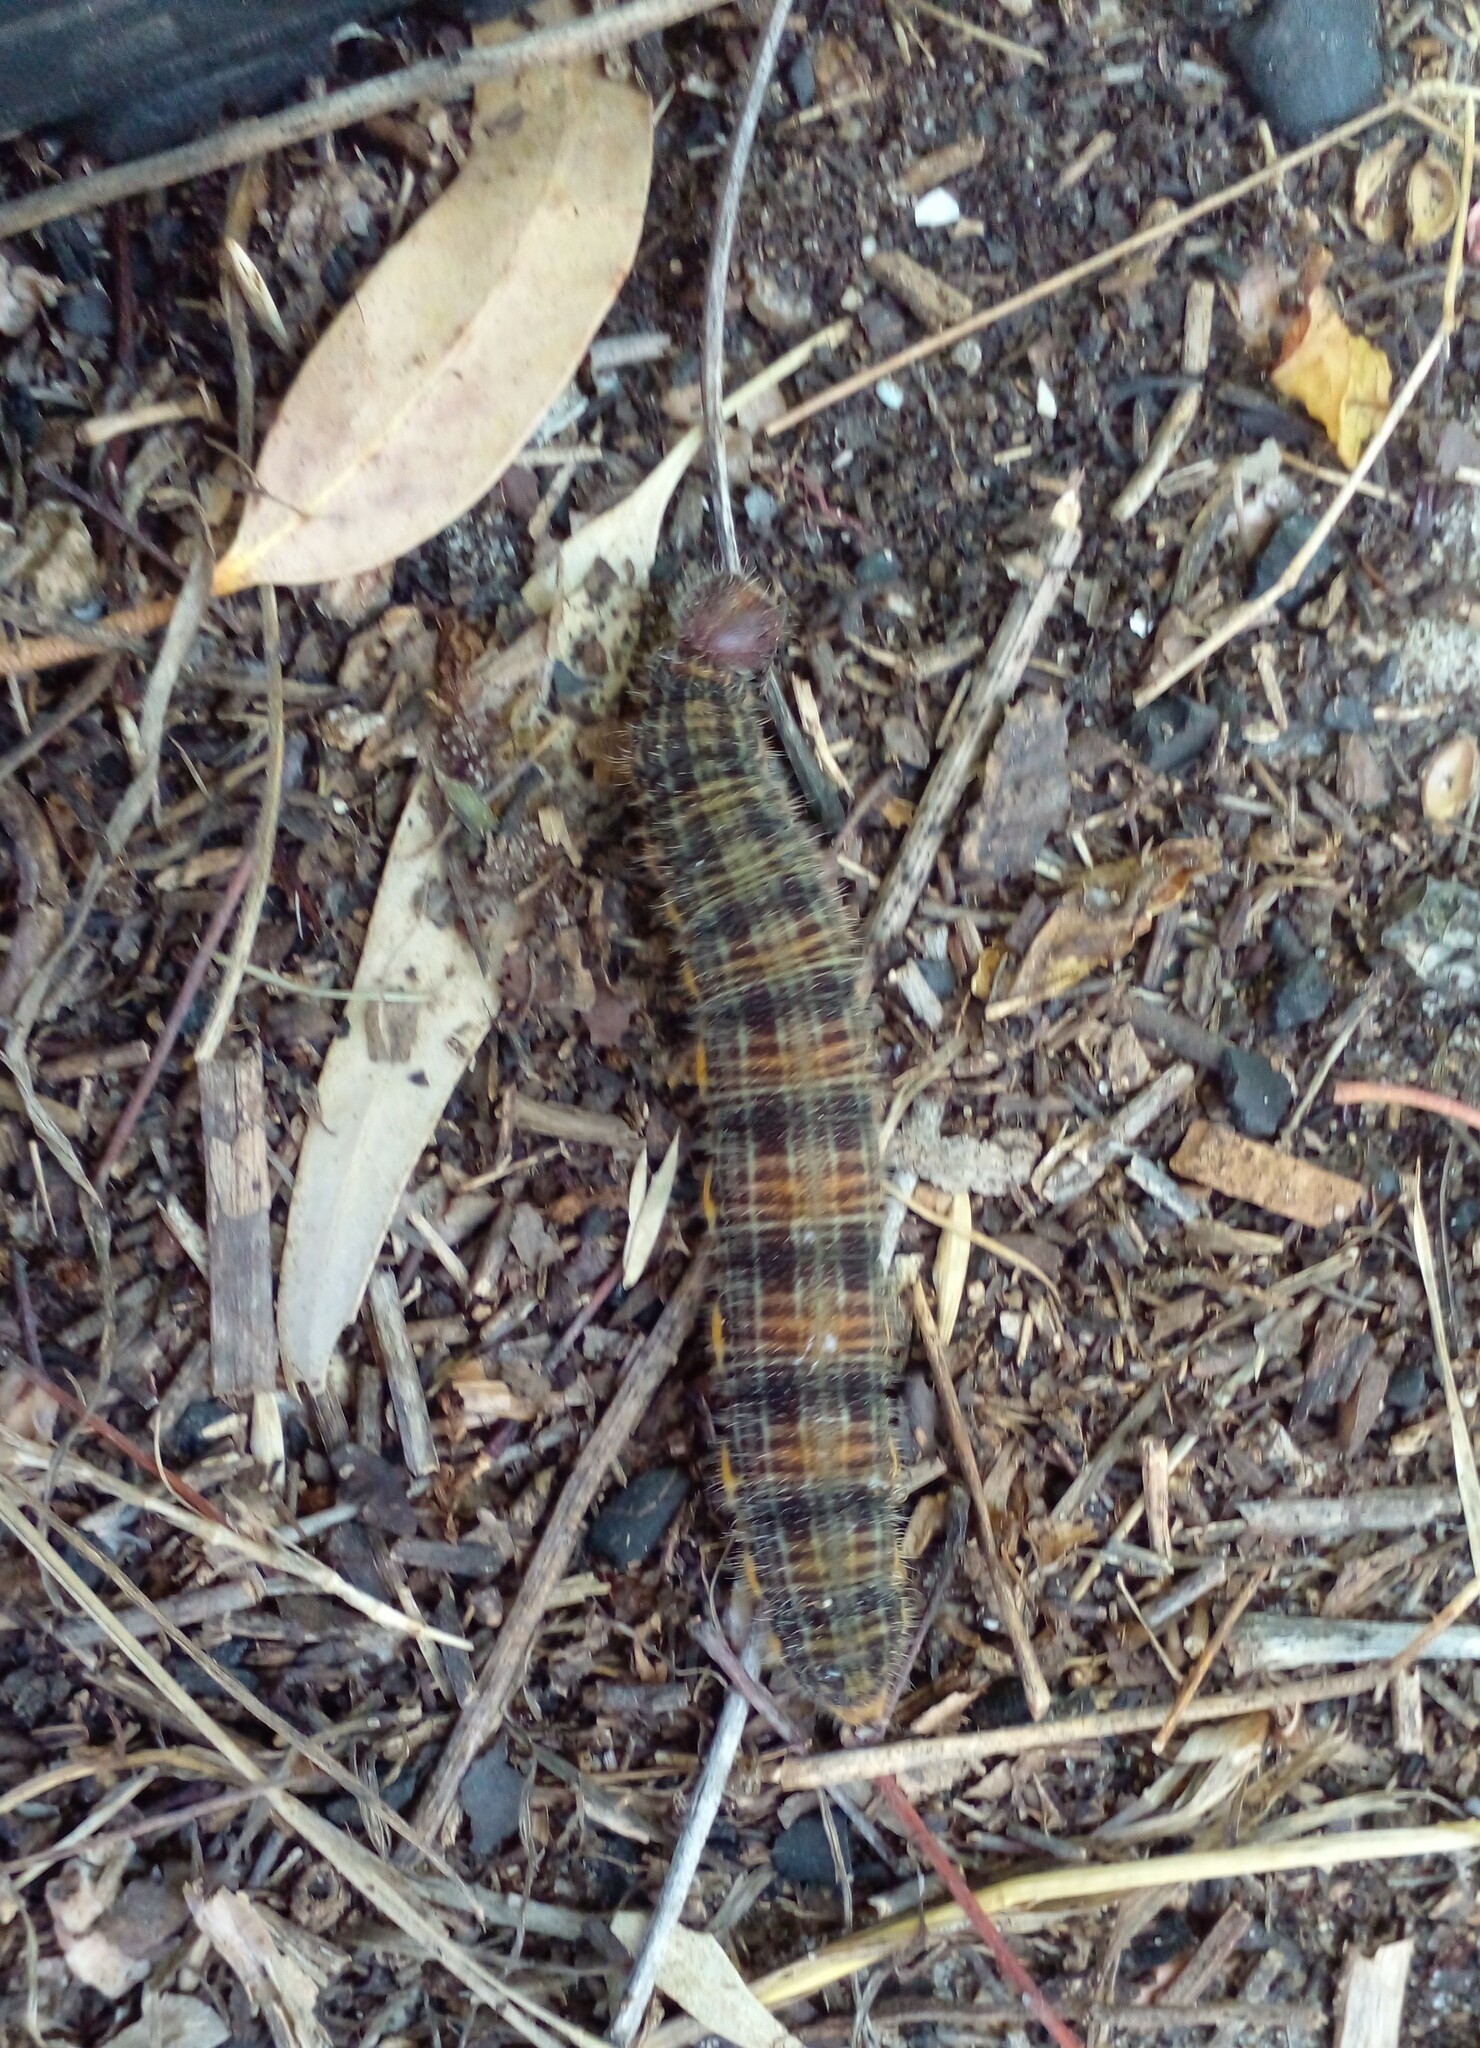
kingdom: Animalia
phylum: Arthropoda
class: Insecta
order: Lepidoptera
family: Nymphalidae
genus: Brassolis
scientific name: Brassolis astyra
